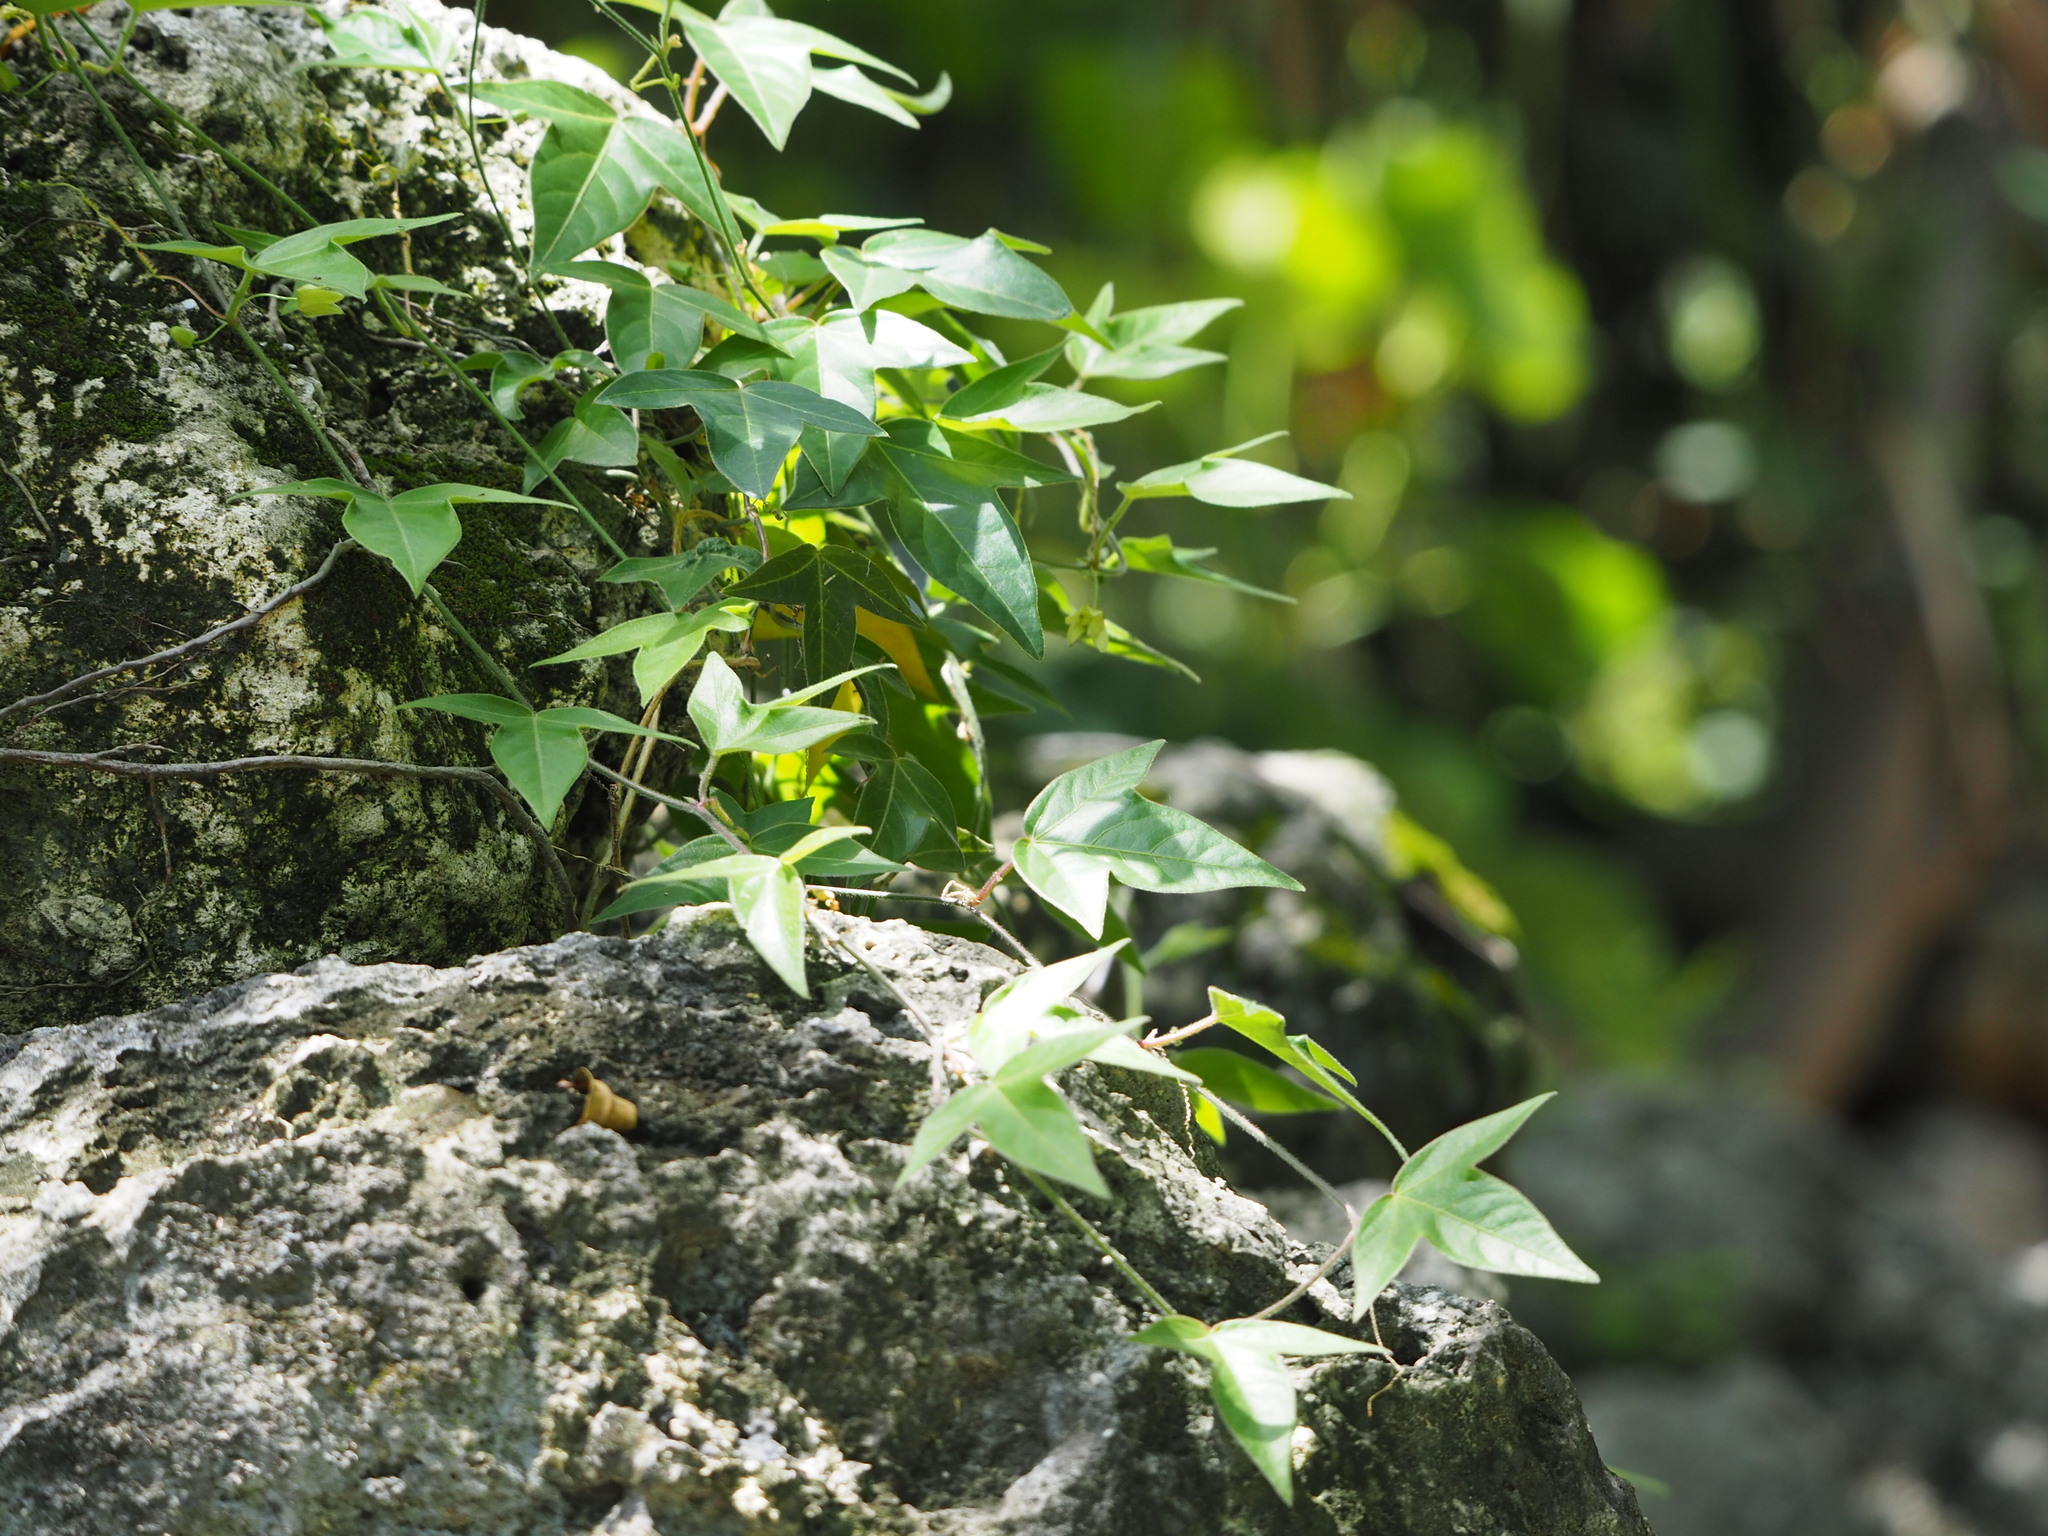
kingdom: Plantae
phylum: Tracheophyta
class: Magnoliopsida
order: Malpighiales
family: Passifloraceae
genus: Passiflora
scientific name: Passiflora suberosa
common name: Wild passionfruit
